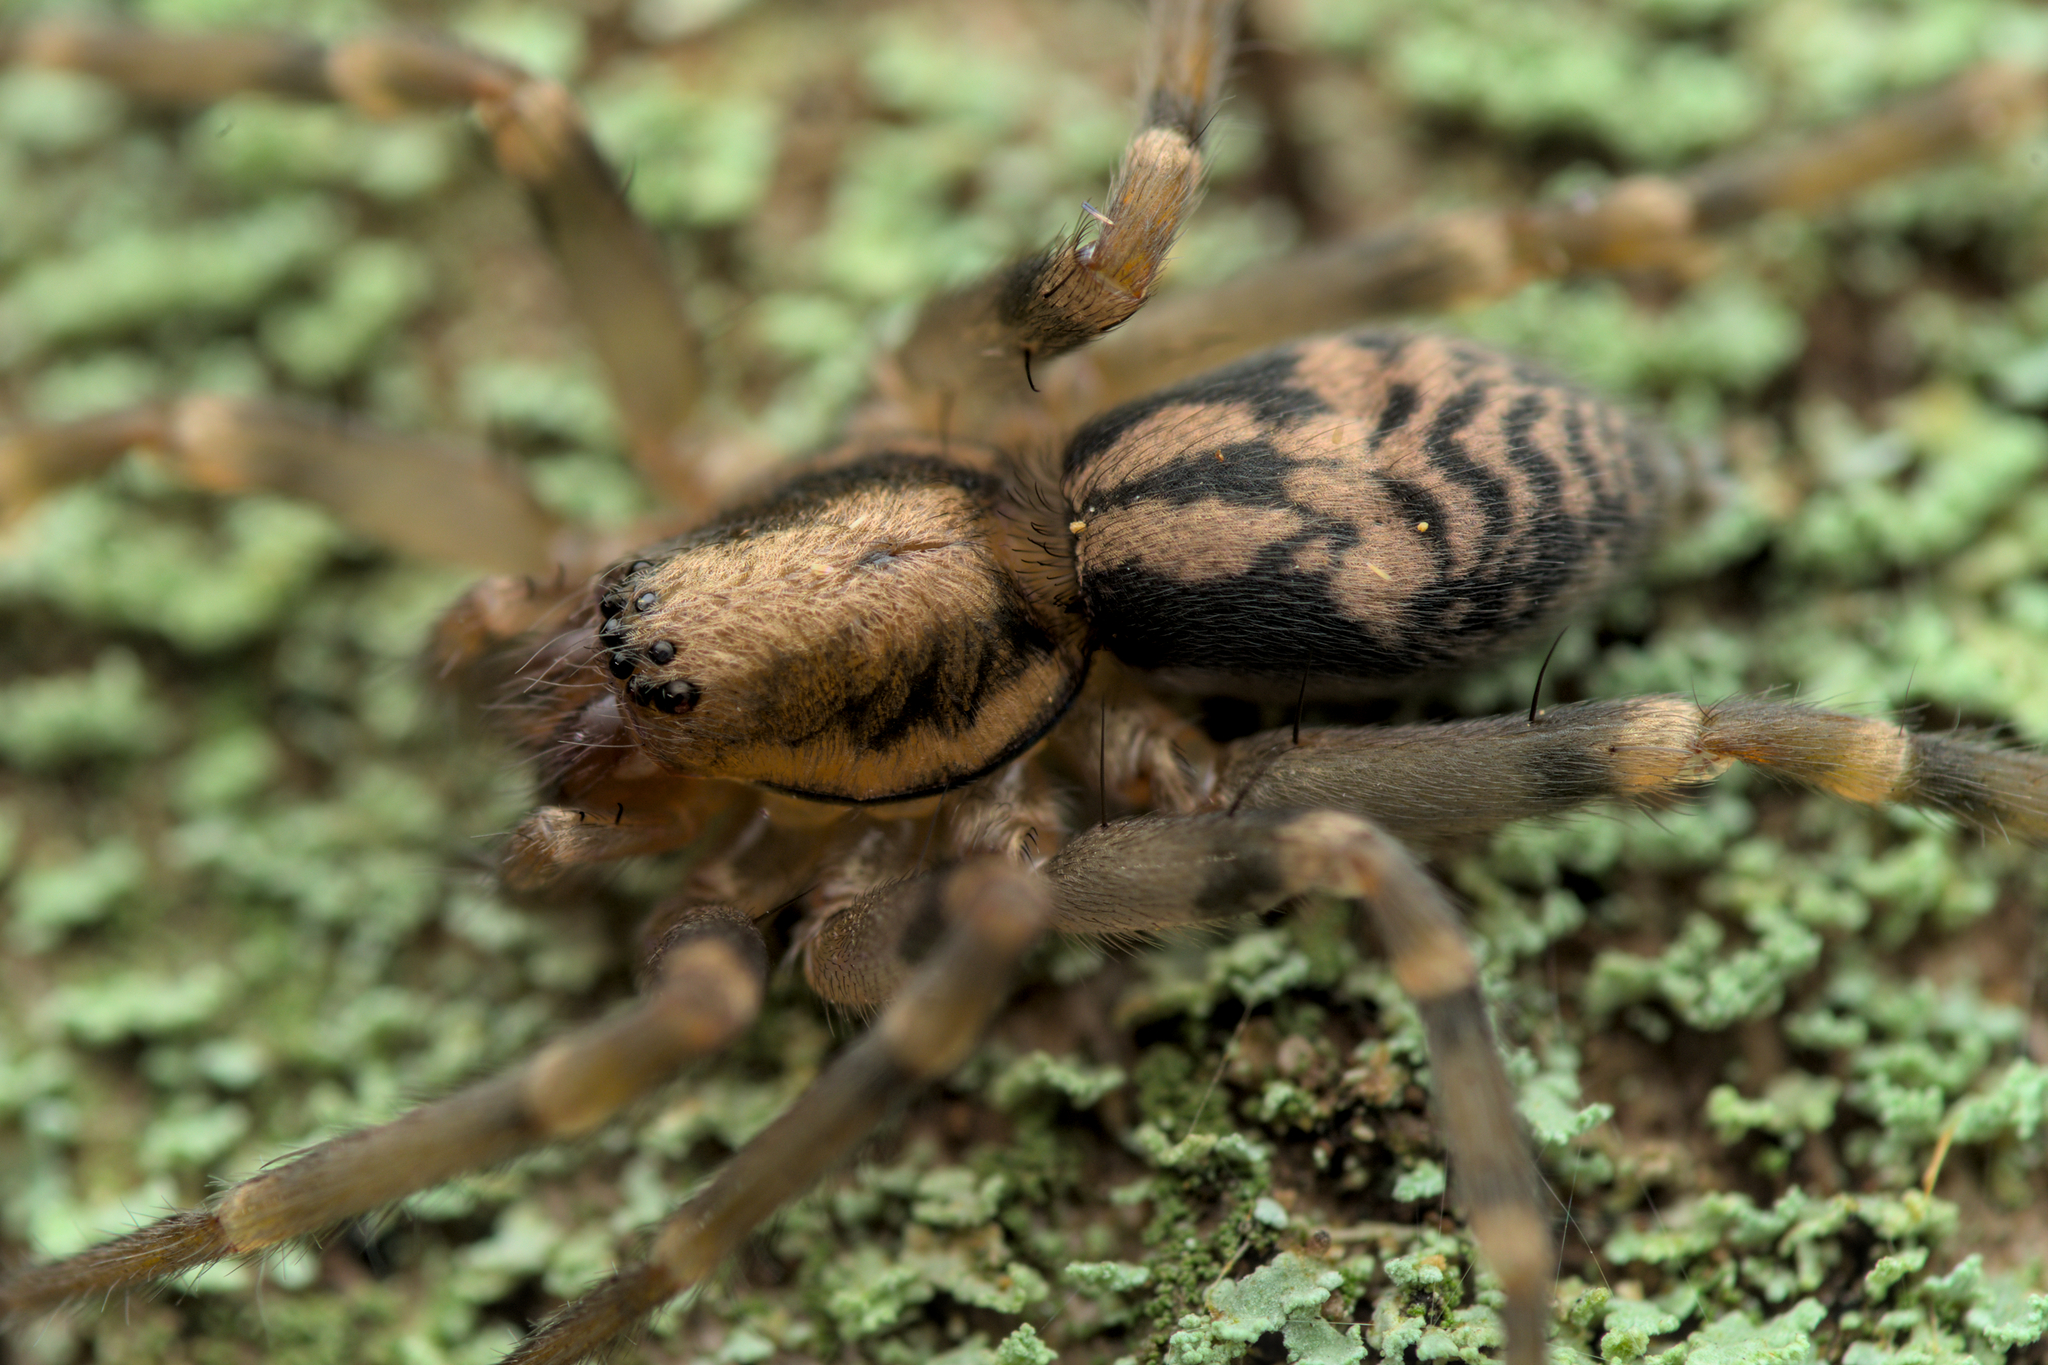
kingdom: Animalia
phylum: Arthropoda
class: Arachnida
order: Araneae
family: Liocranidae
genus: Liocranum
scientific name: Liocranum rupicola
